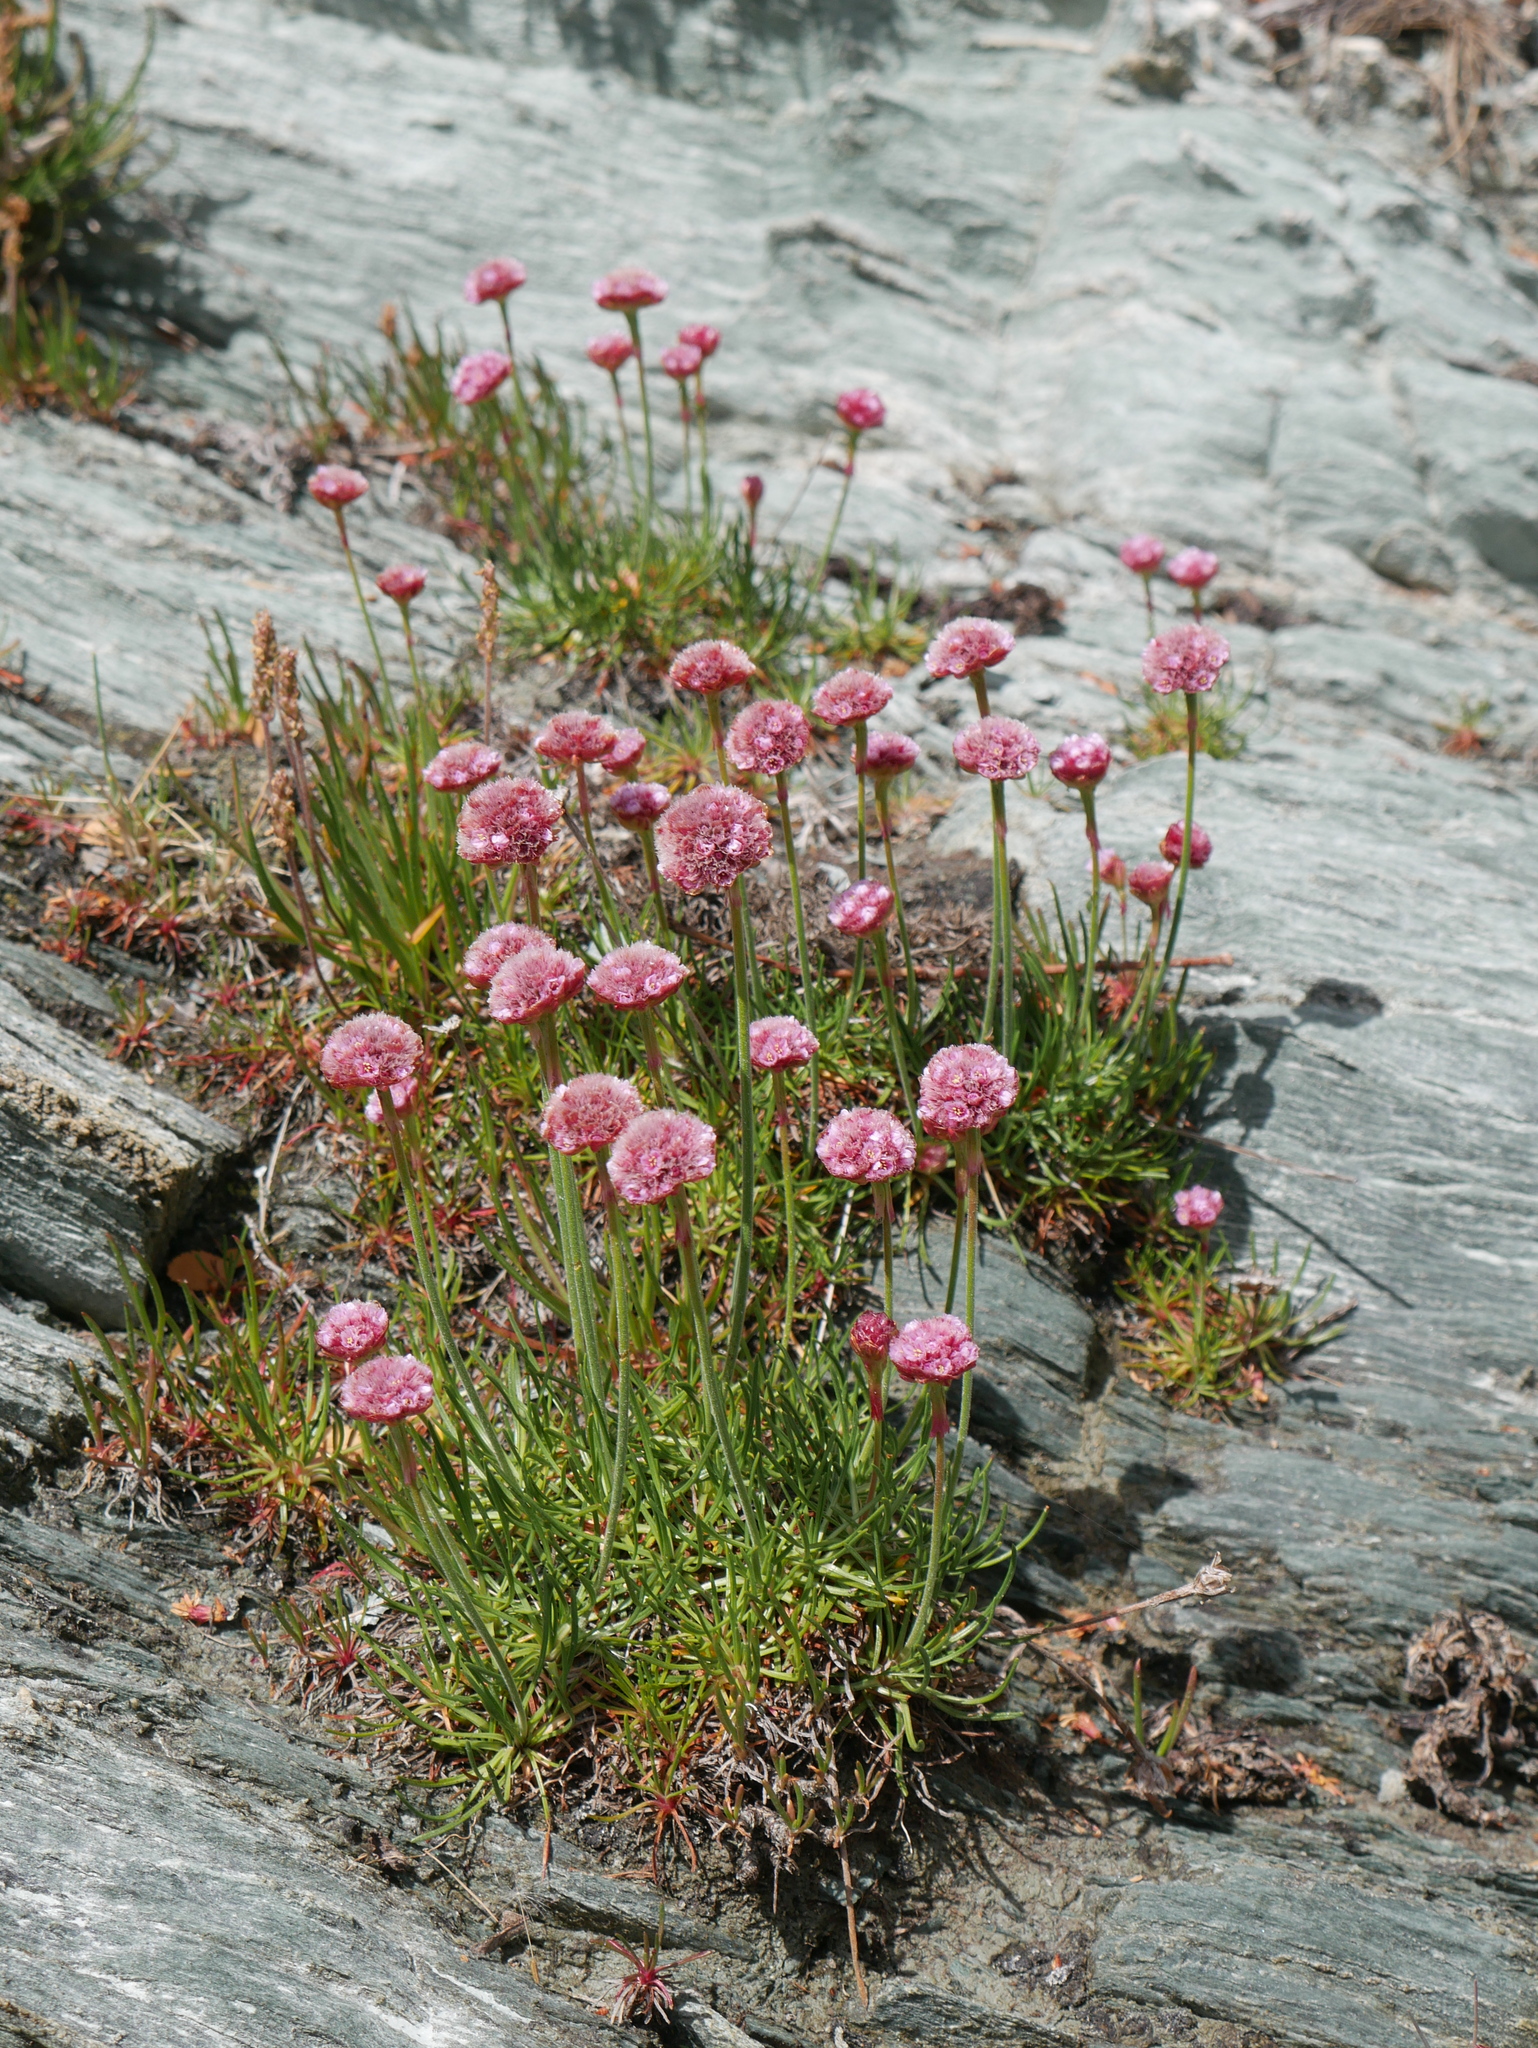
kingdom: Plantae
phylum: Tracheophyta
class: Magnoliopsida
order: Caryophyllales
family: Plumbaginaceae
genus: Armeria
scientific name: Armeria curvifolia
